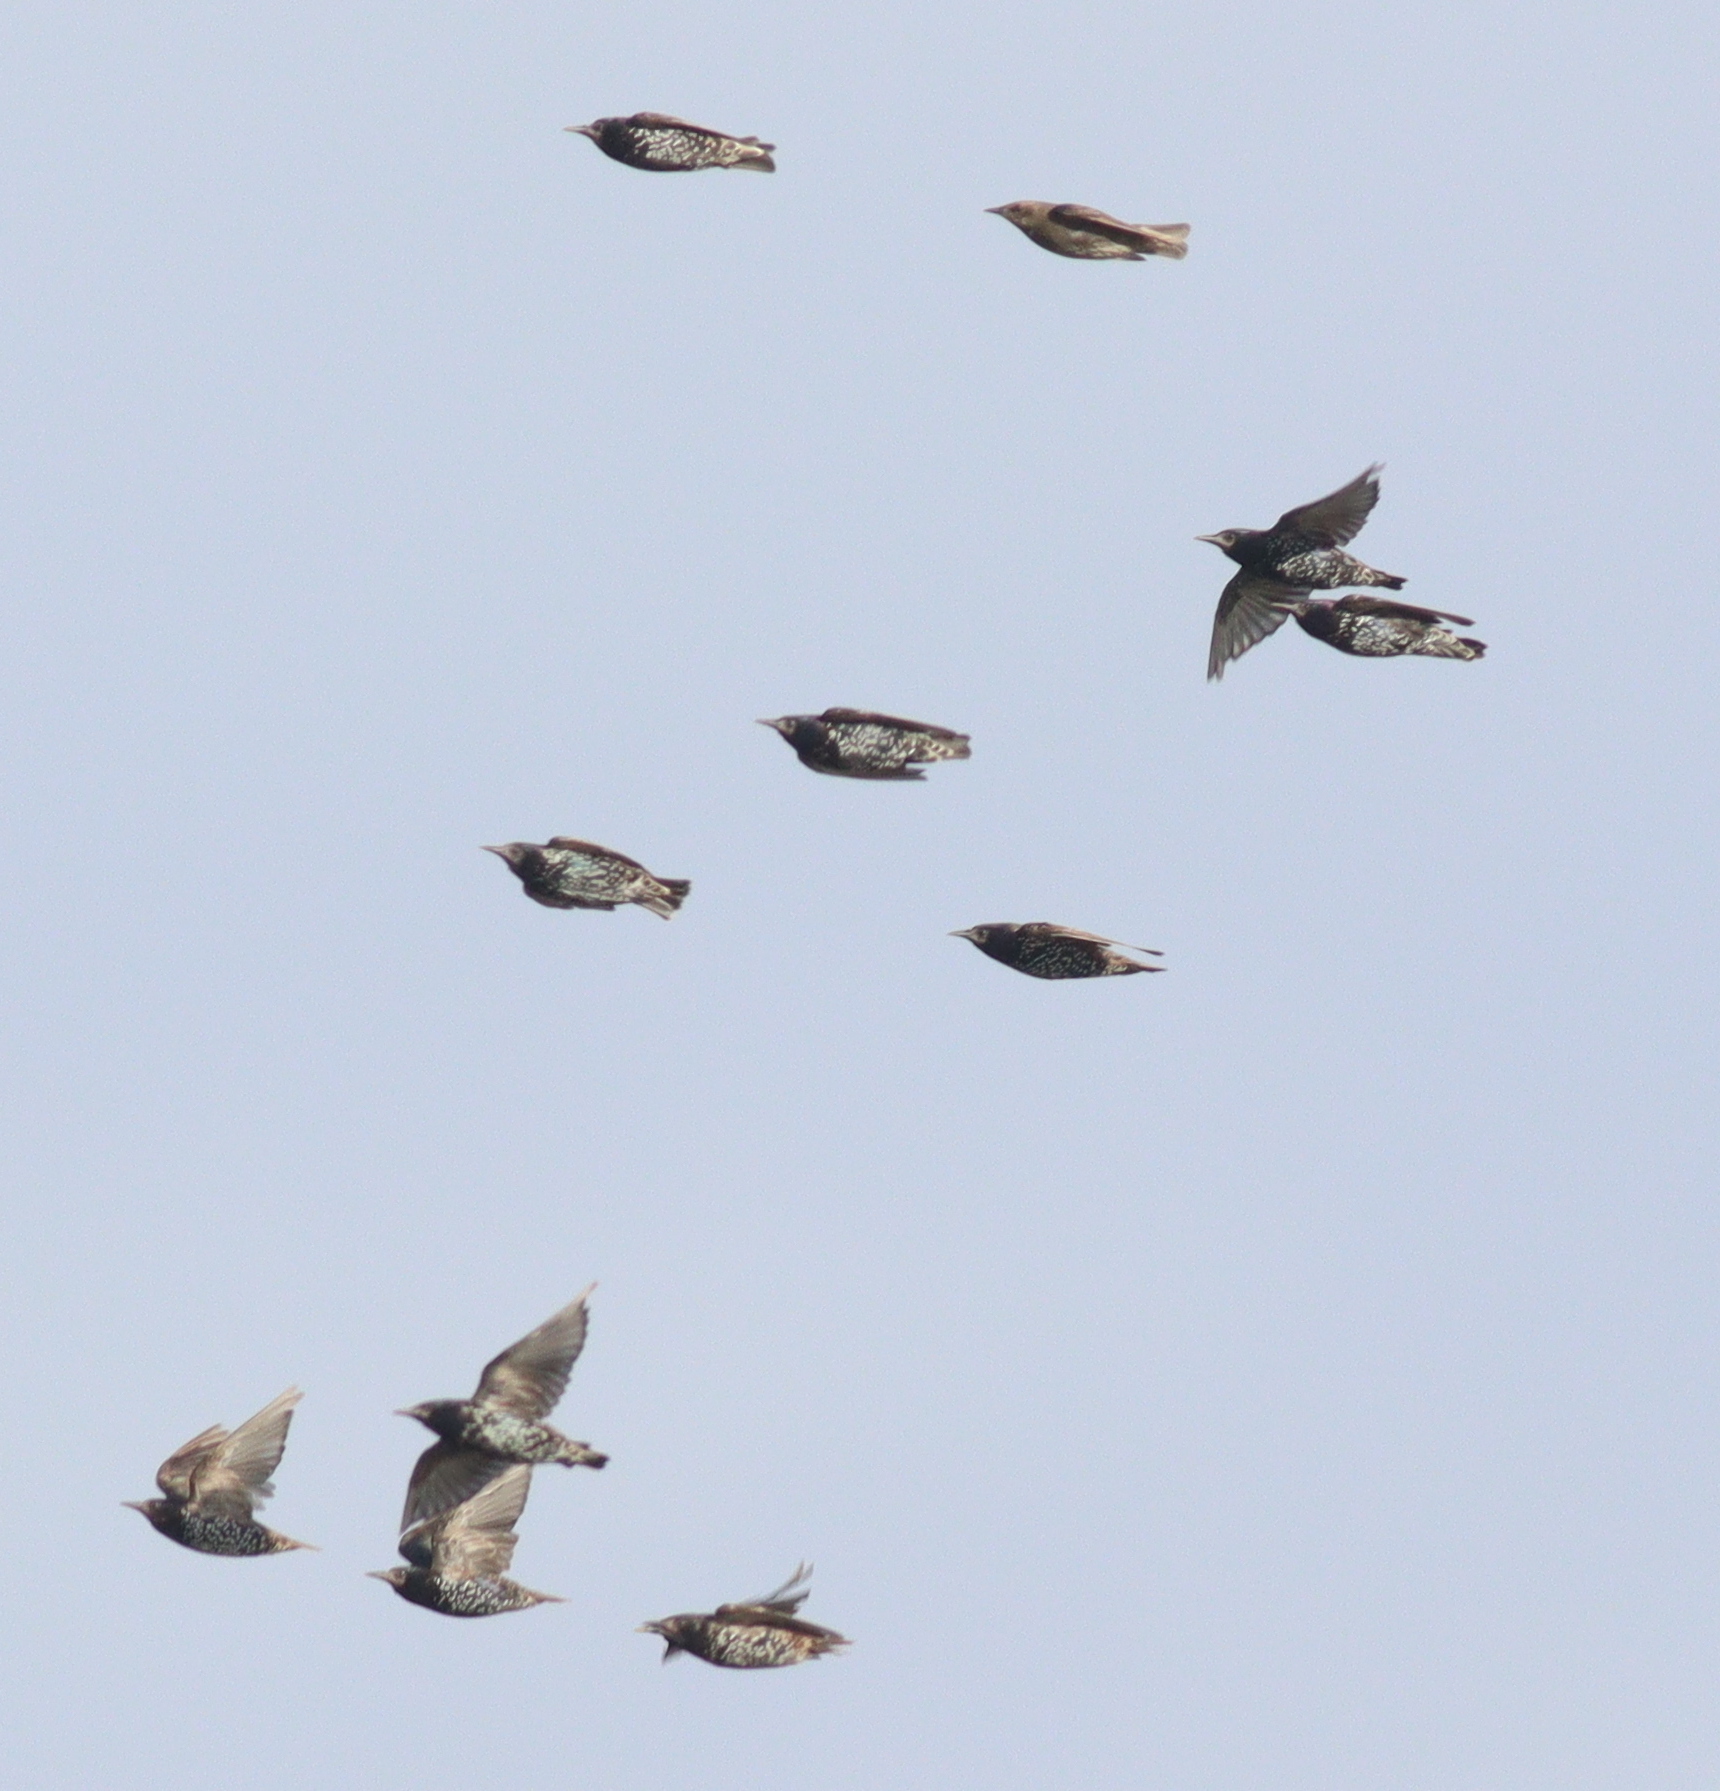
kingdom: Animalia
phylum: Chordata
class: Aves
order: Passeriformes
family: Sturnidae
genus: Sturnus
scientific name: Sturnus vulgaris
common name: Common starling
